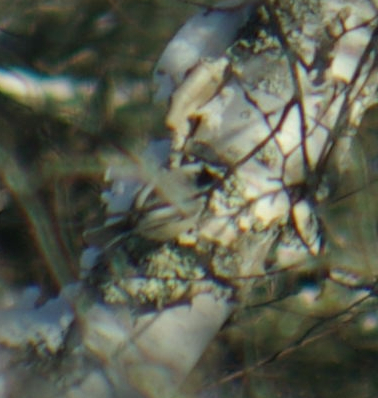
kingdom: Animalia
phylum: Chordata
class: Aves
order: Passeriformes
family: Paridae
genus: Poecile
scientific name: Poecile atricapillus
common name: Black-capped chickadee
